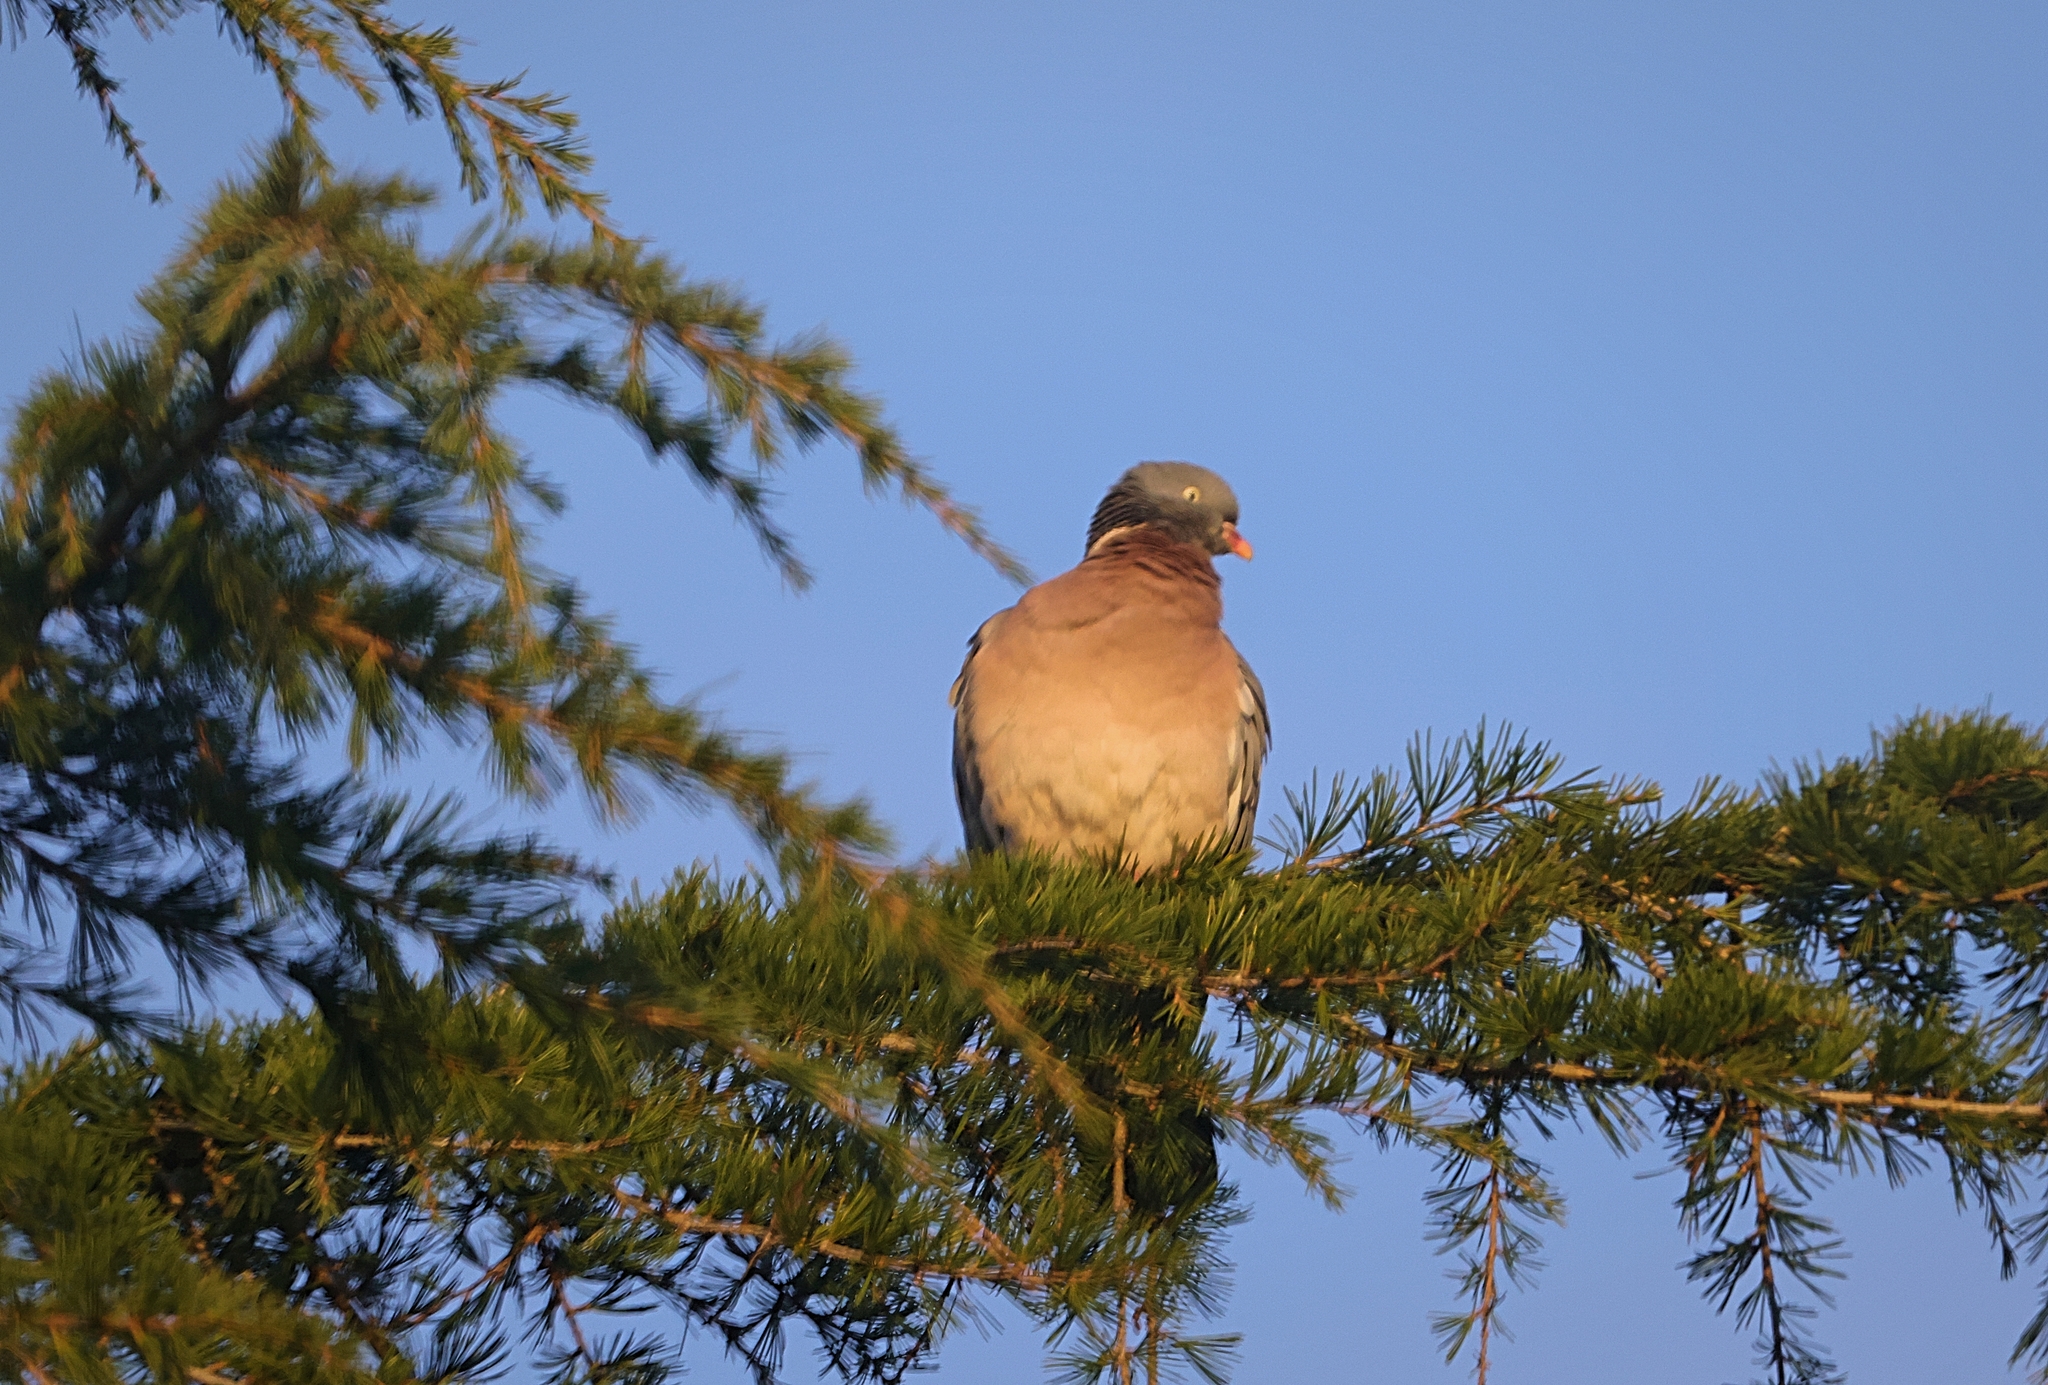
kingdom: Animalia
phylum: Chordata
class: Aves
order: Columbiformes
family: Columbidae
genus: Columba
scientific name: Columba palumbus
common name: Common wood pigeon
